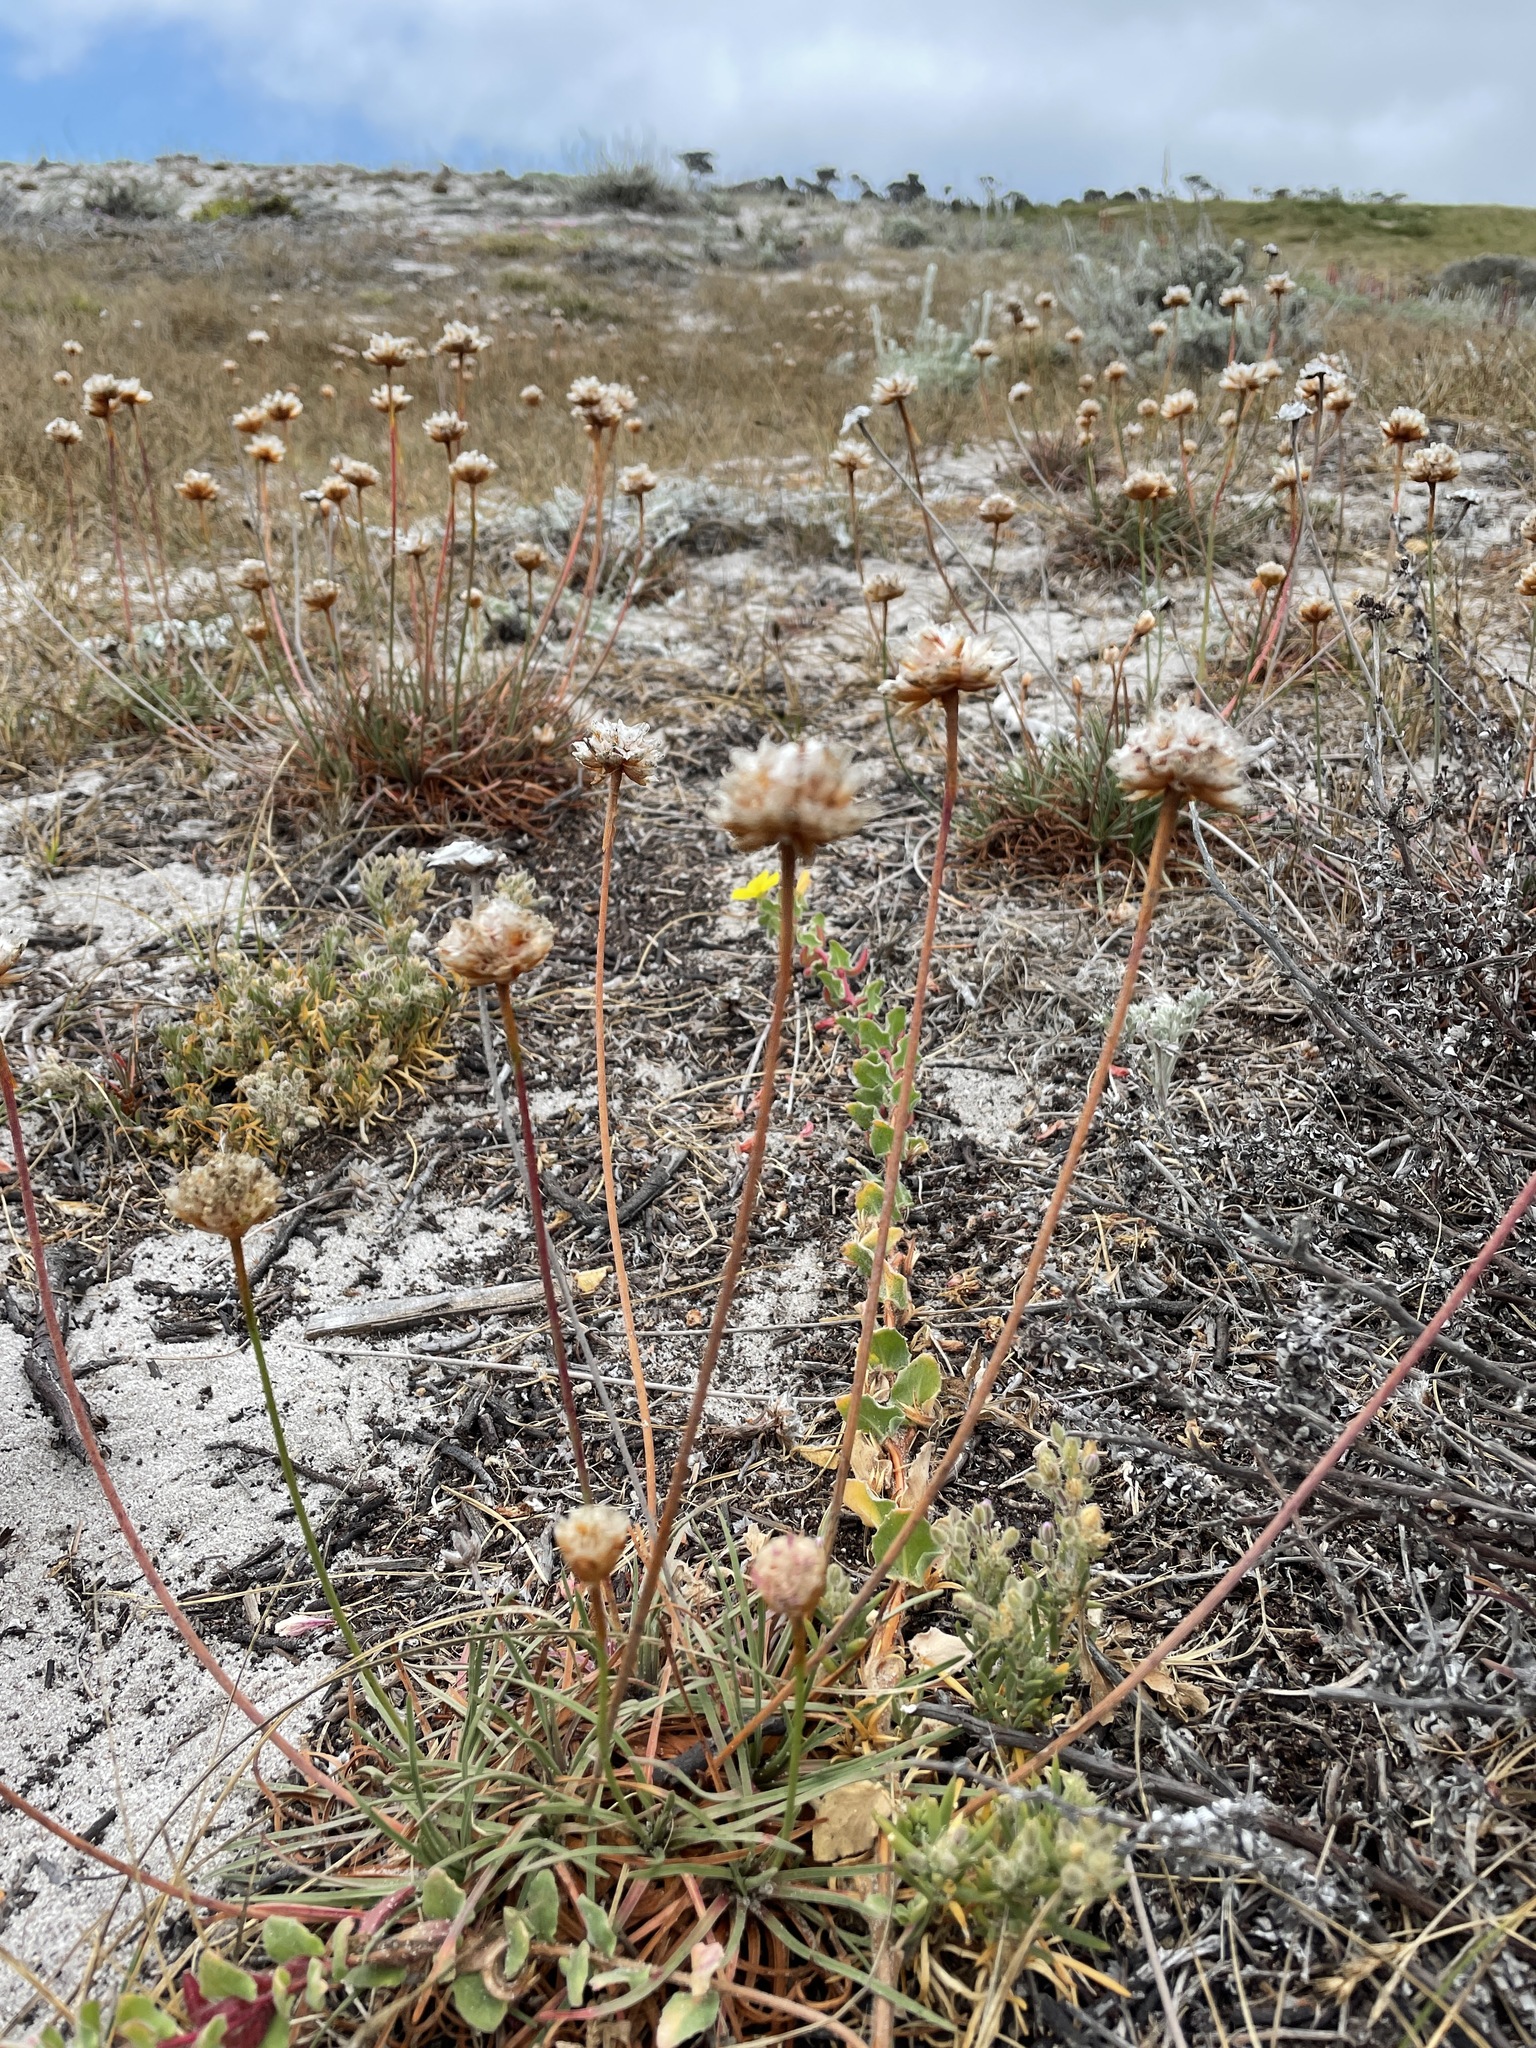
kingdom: Plantae
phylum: Tracheophyta
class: Magnoliopsida
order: Caryophyllales
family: Plumbaginaceae
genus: Armeria
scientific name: Armeria maritima
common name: Thrift
